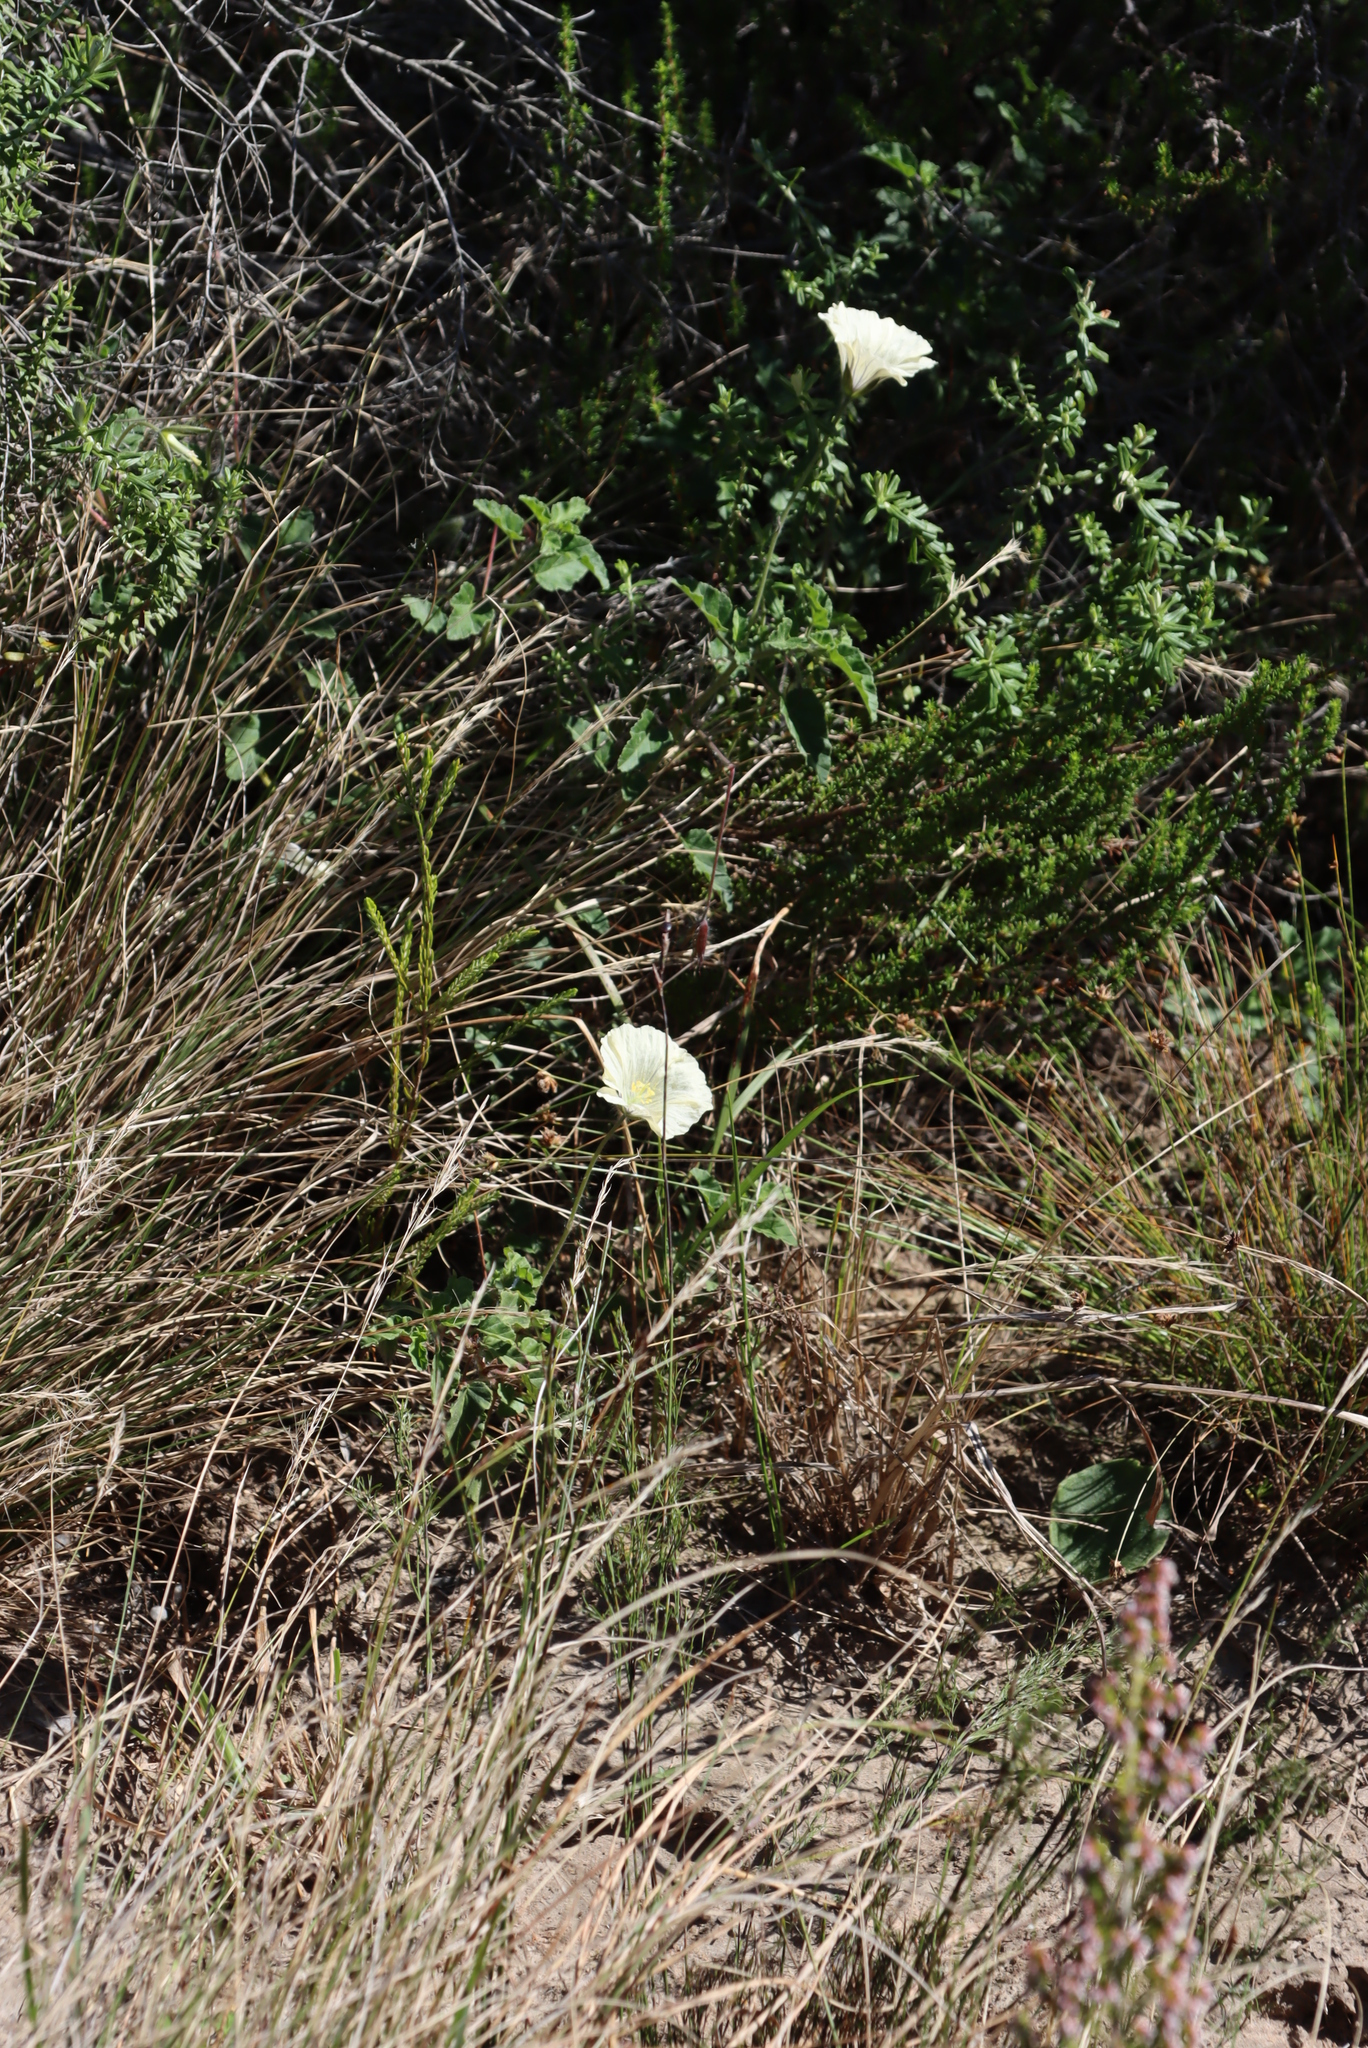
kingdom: Plantae
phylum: Tracheophyta
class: Magnoliopsida
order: Geraniales
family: Geraniaceae
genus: Monsonia
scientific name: Monsonia emarginata
